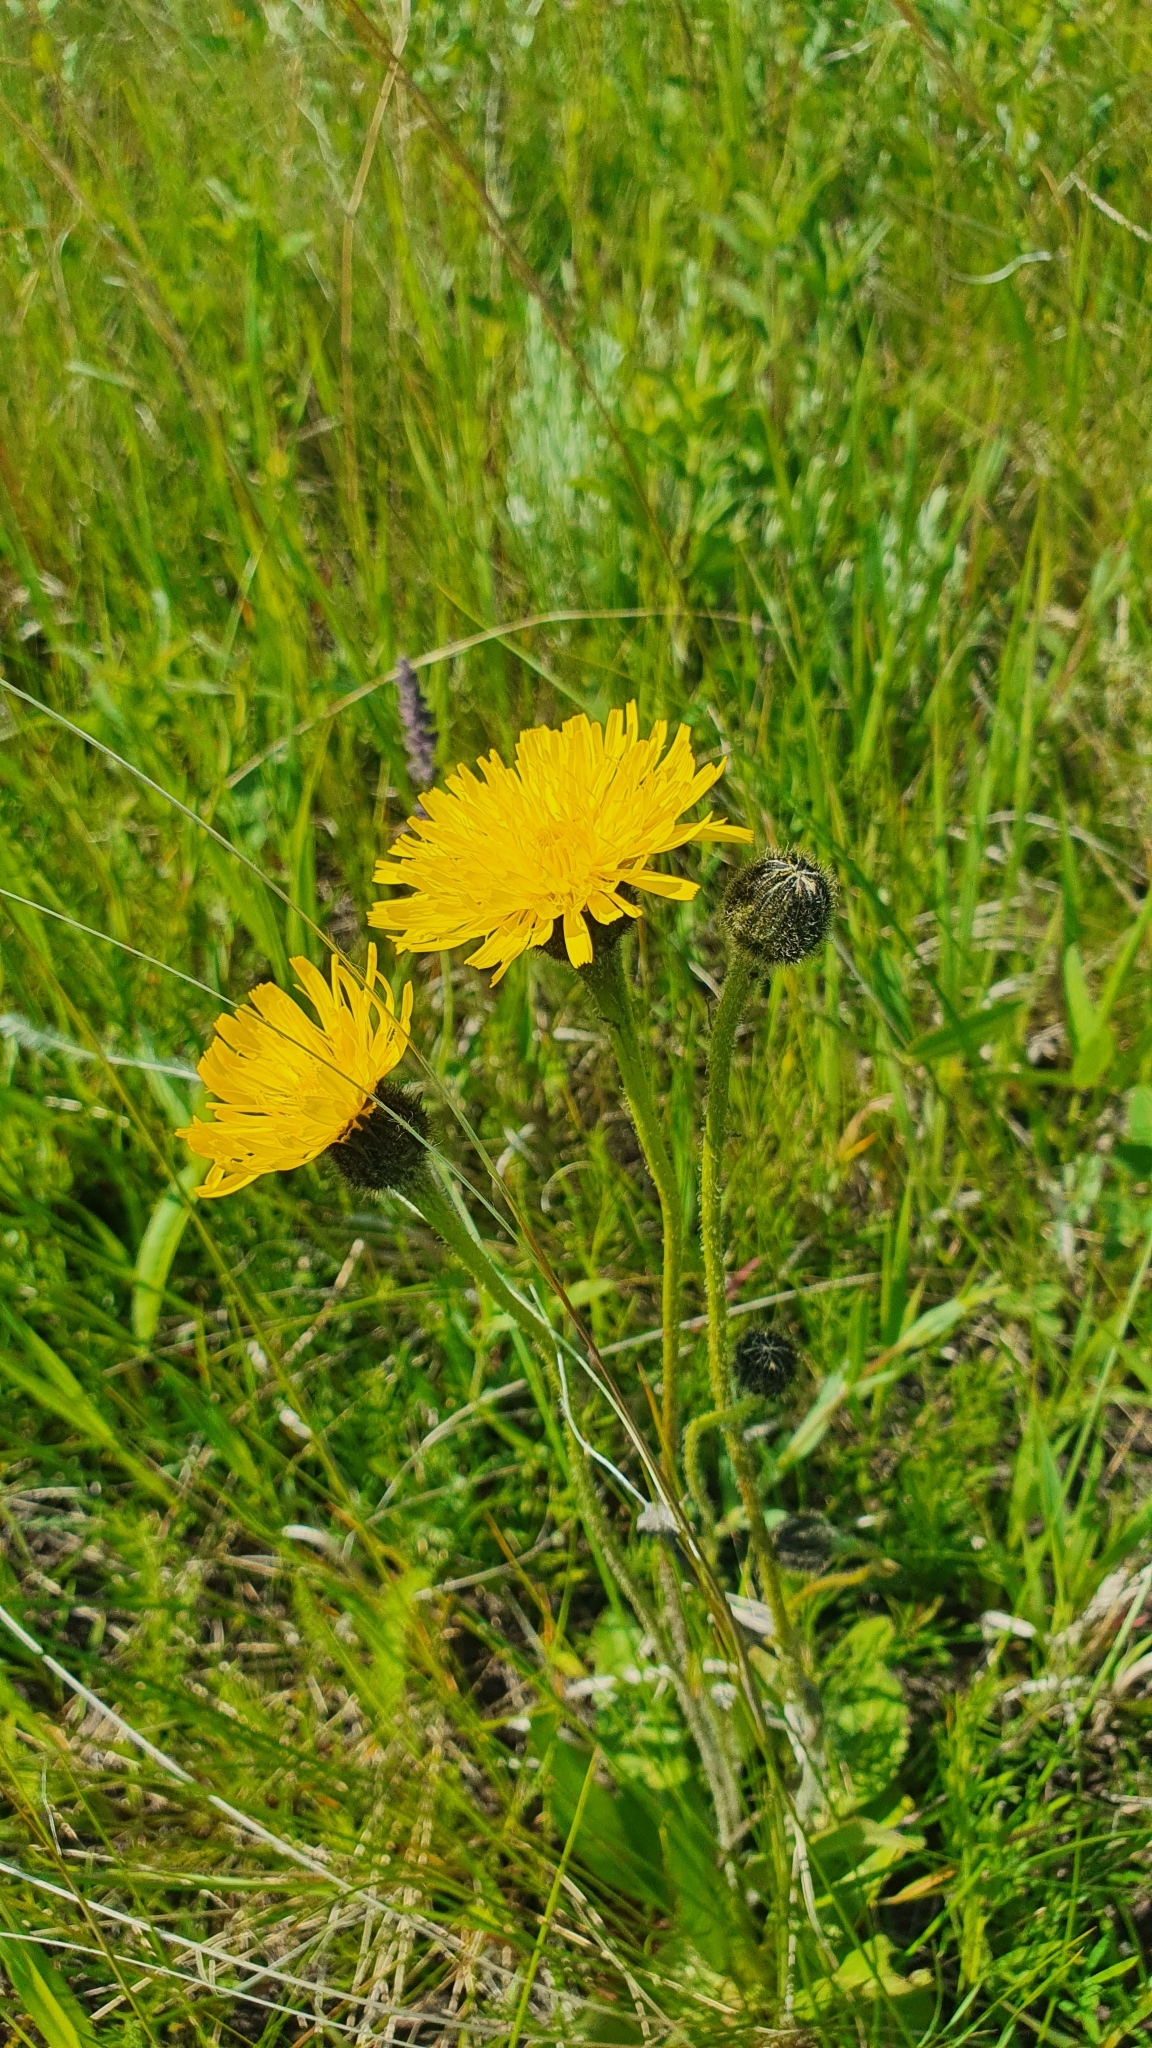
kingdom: Plantae
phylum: Tracheophyta
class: Magnoliopsida
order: Asterales
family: Asteraceae
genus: Trommsdorffia
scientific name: Trommsdorffia maculata
